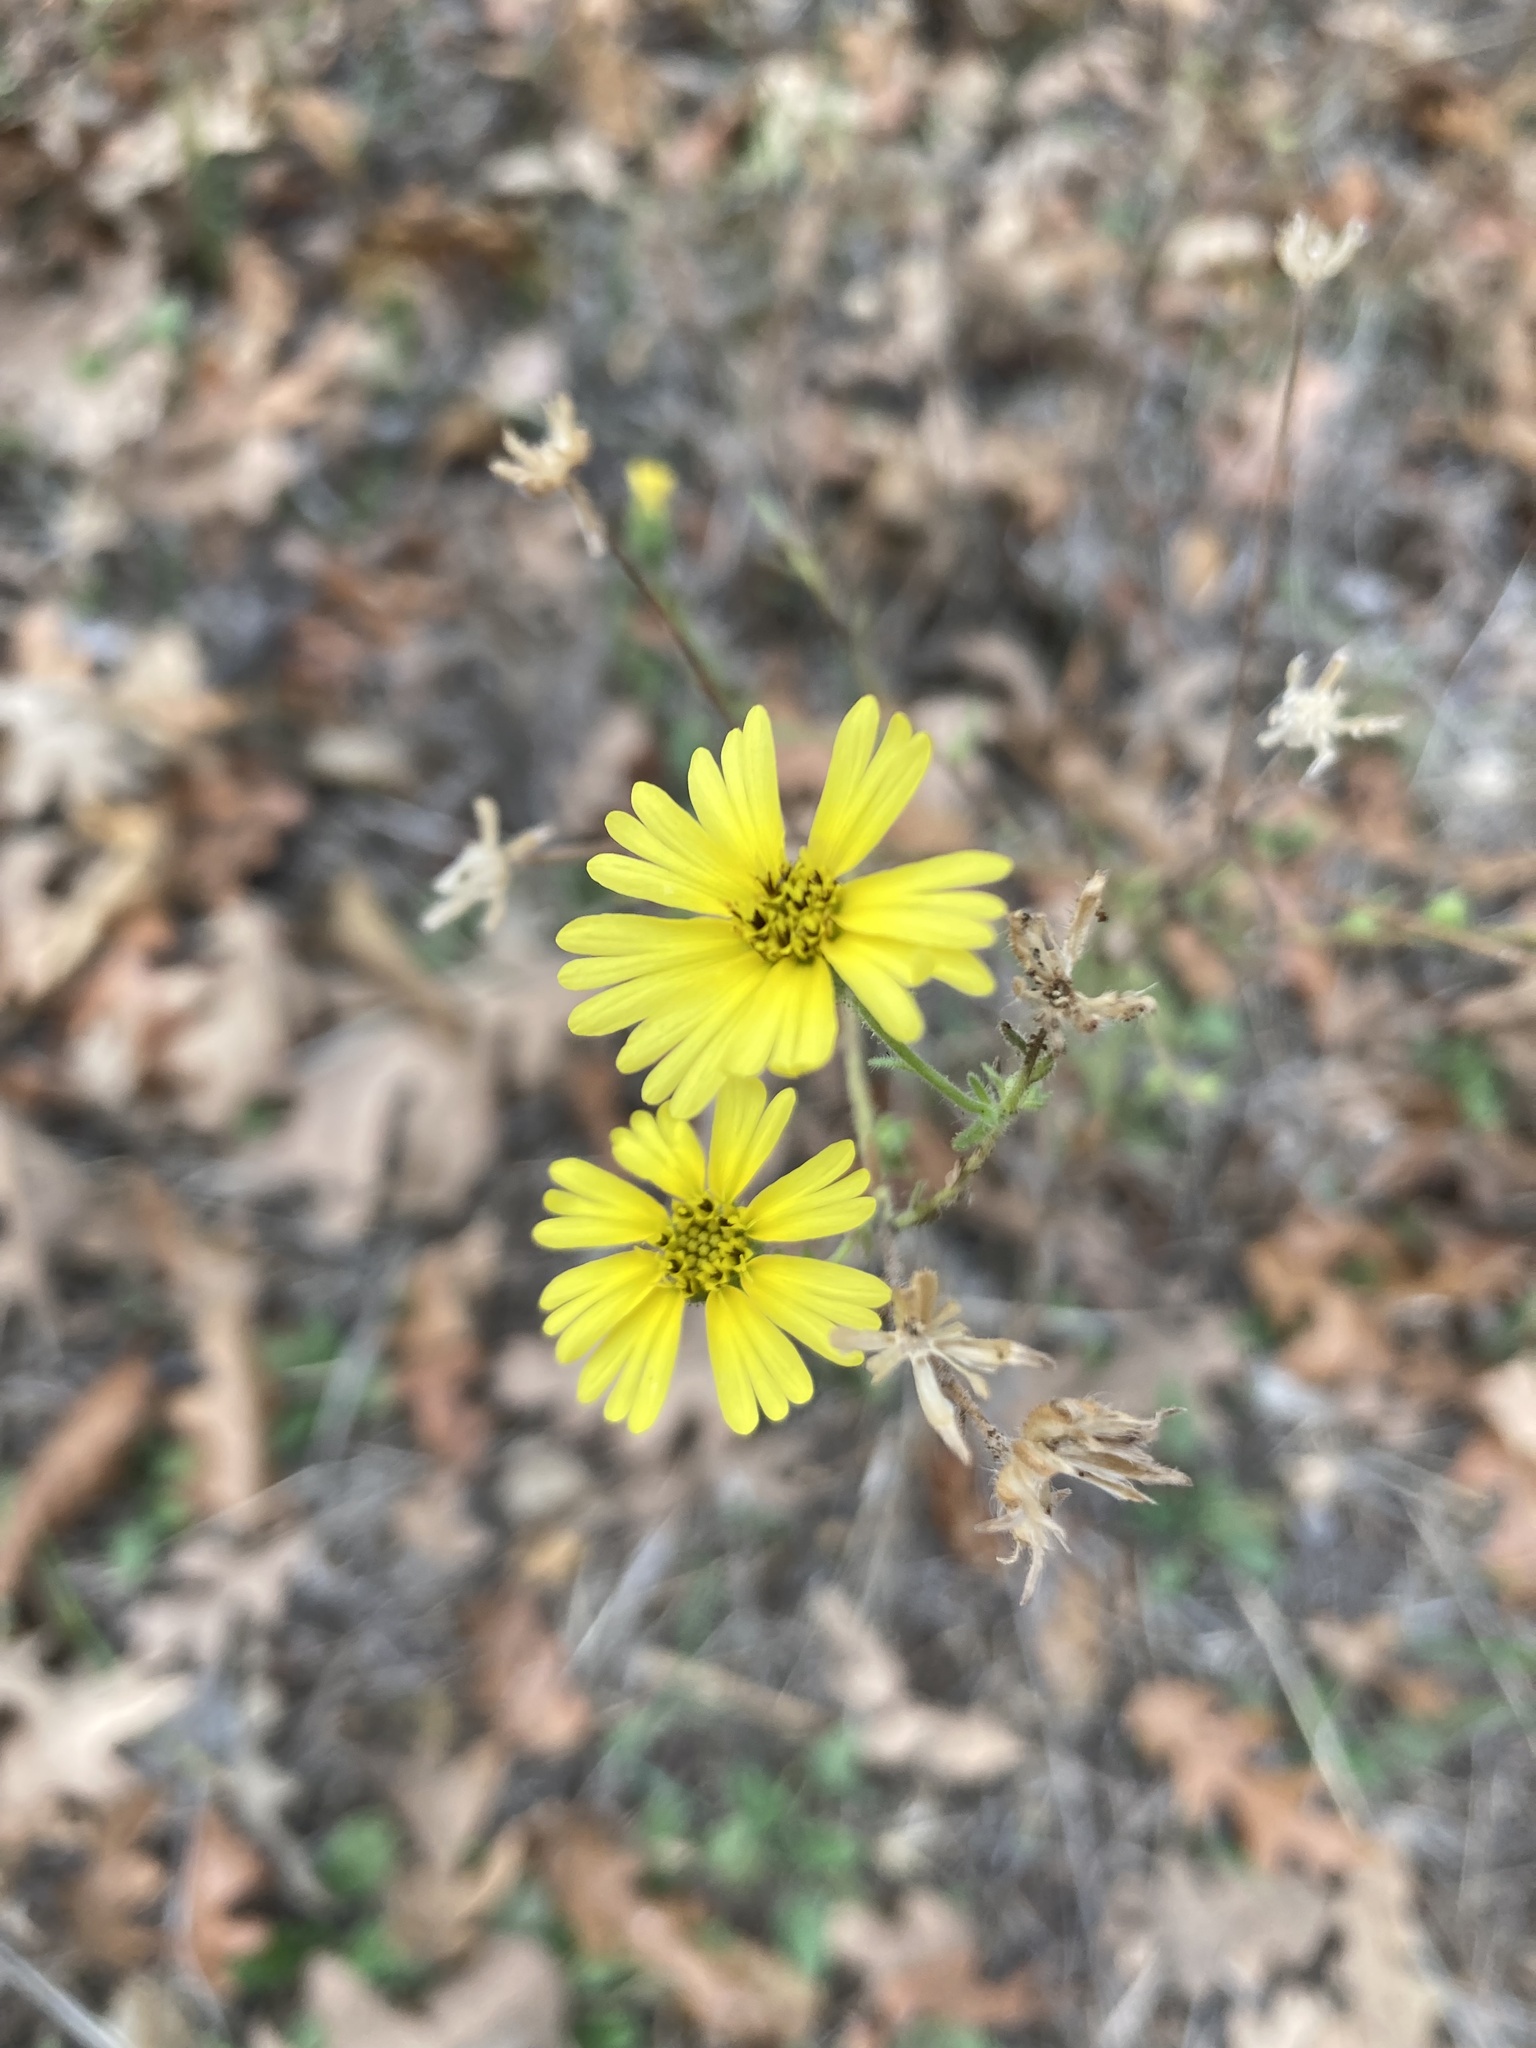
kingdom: Plantae
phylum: Tracheophyta
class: Magnoliopsida
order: Asterales
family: Asteraceae
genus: Madia
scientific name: Madia
